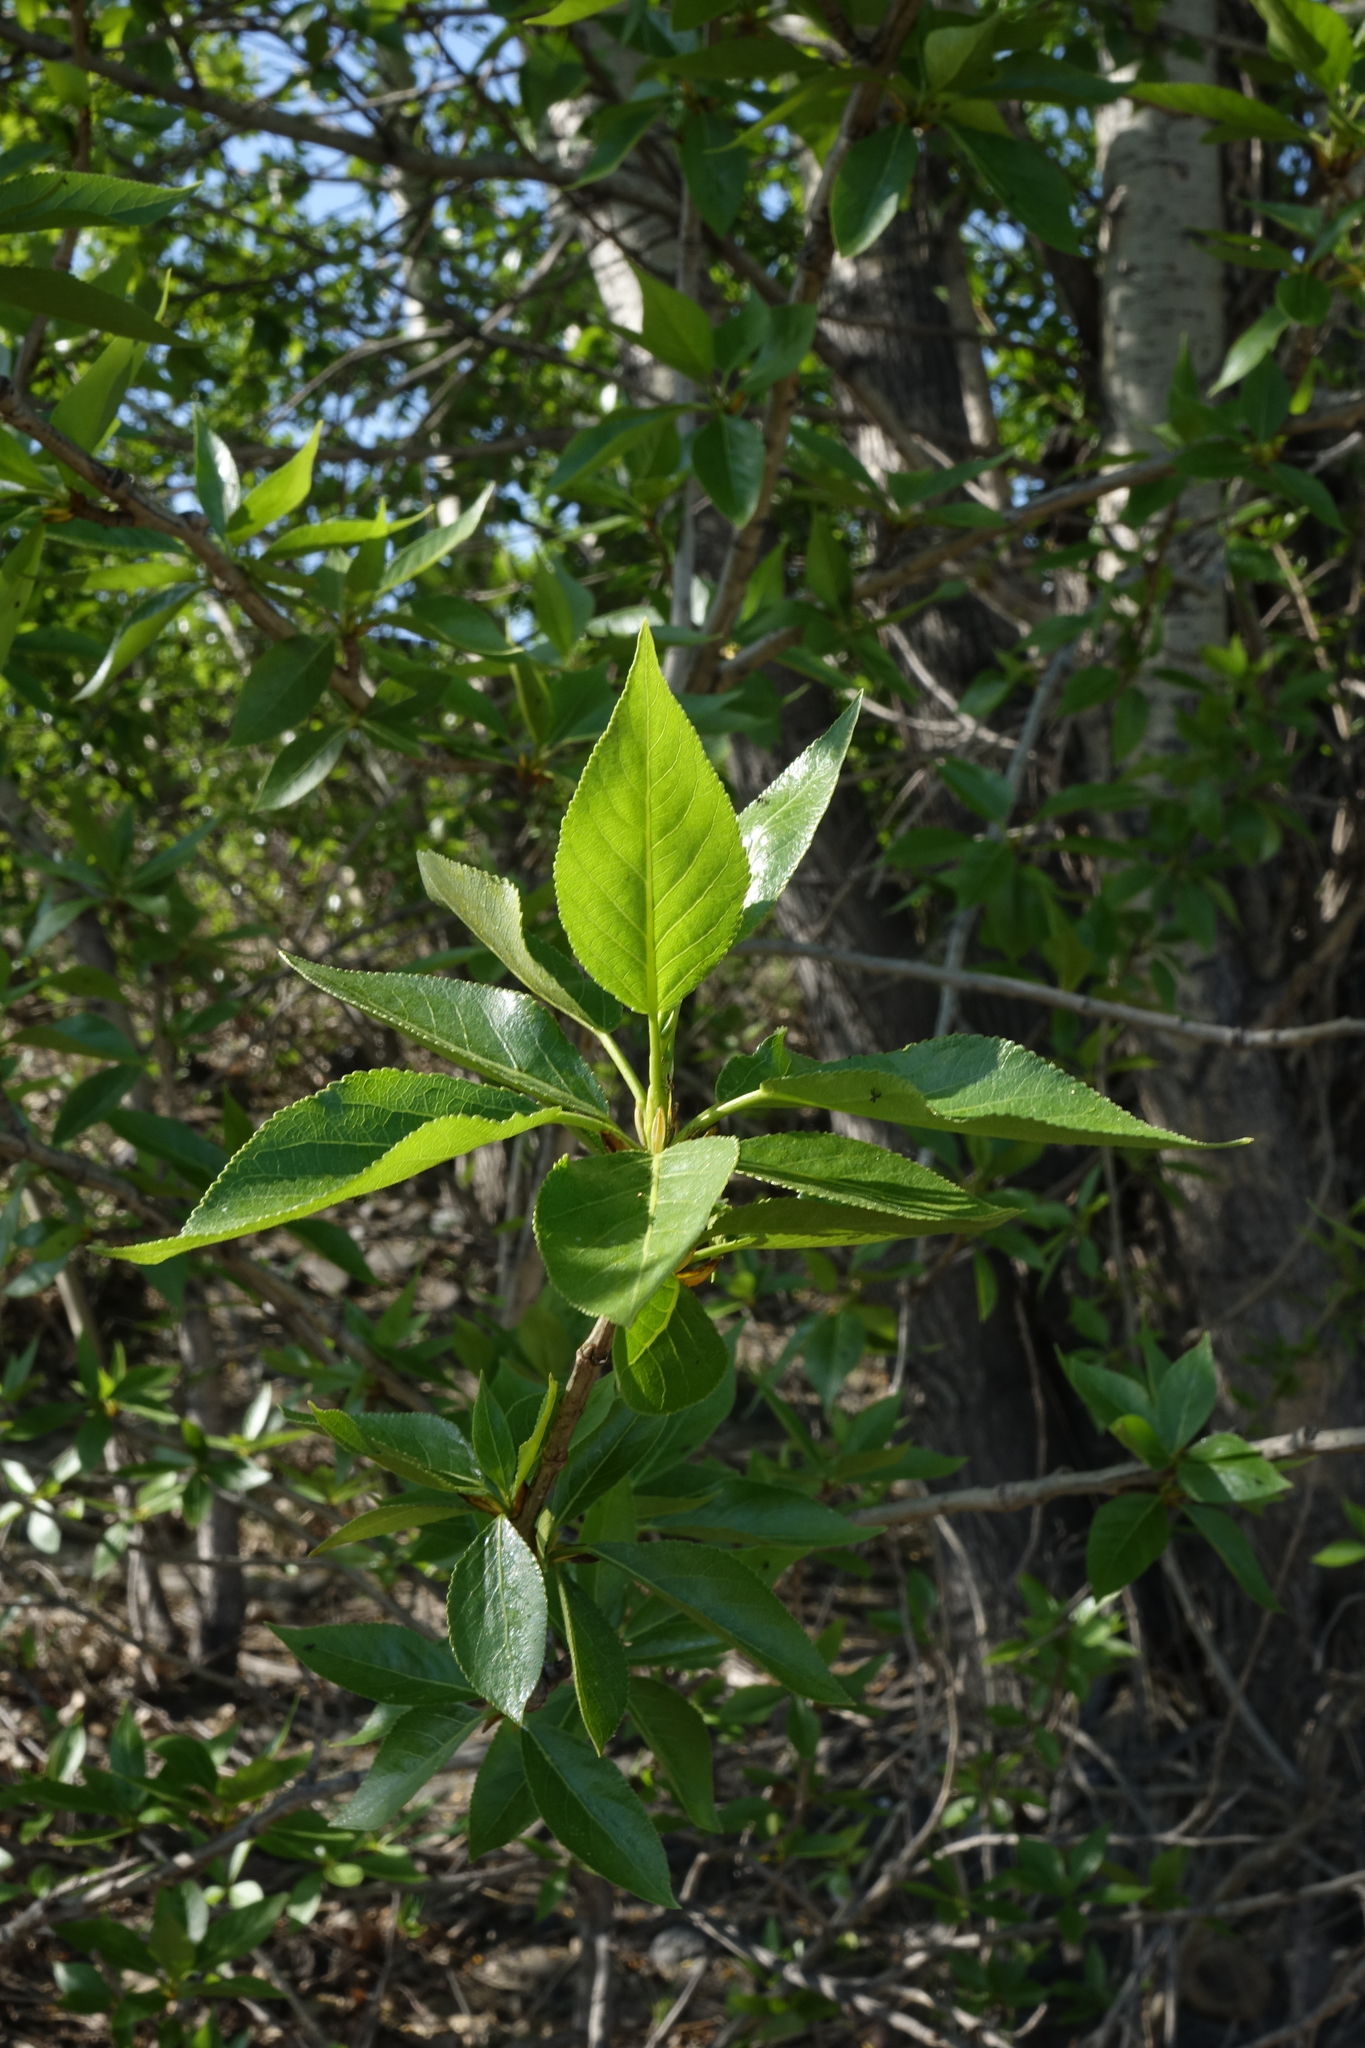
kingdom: Plantae
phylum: Tracheophyta
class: Magnoliopsida
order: Malpighiales
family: Salicaceae
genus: Populus
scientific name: Populus laurifolia
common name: Laurel-leaf poplar
